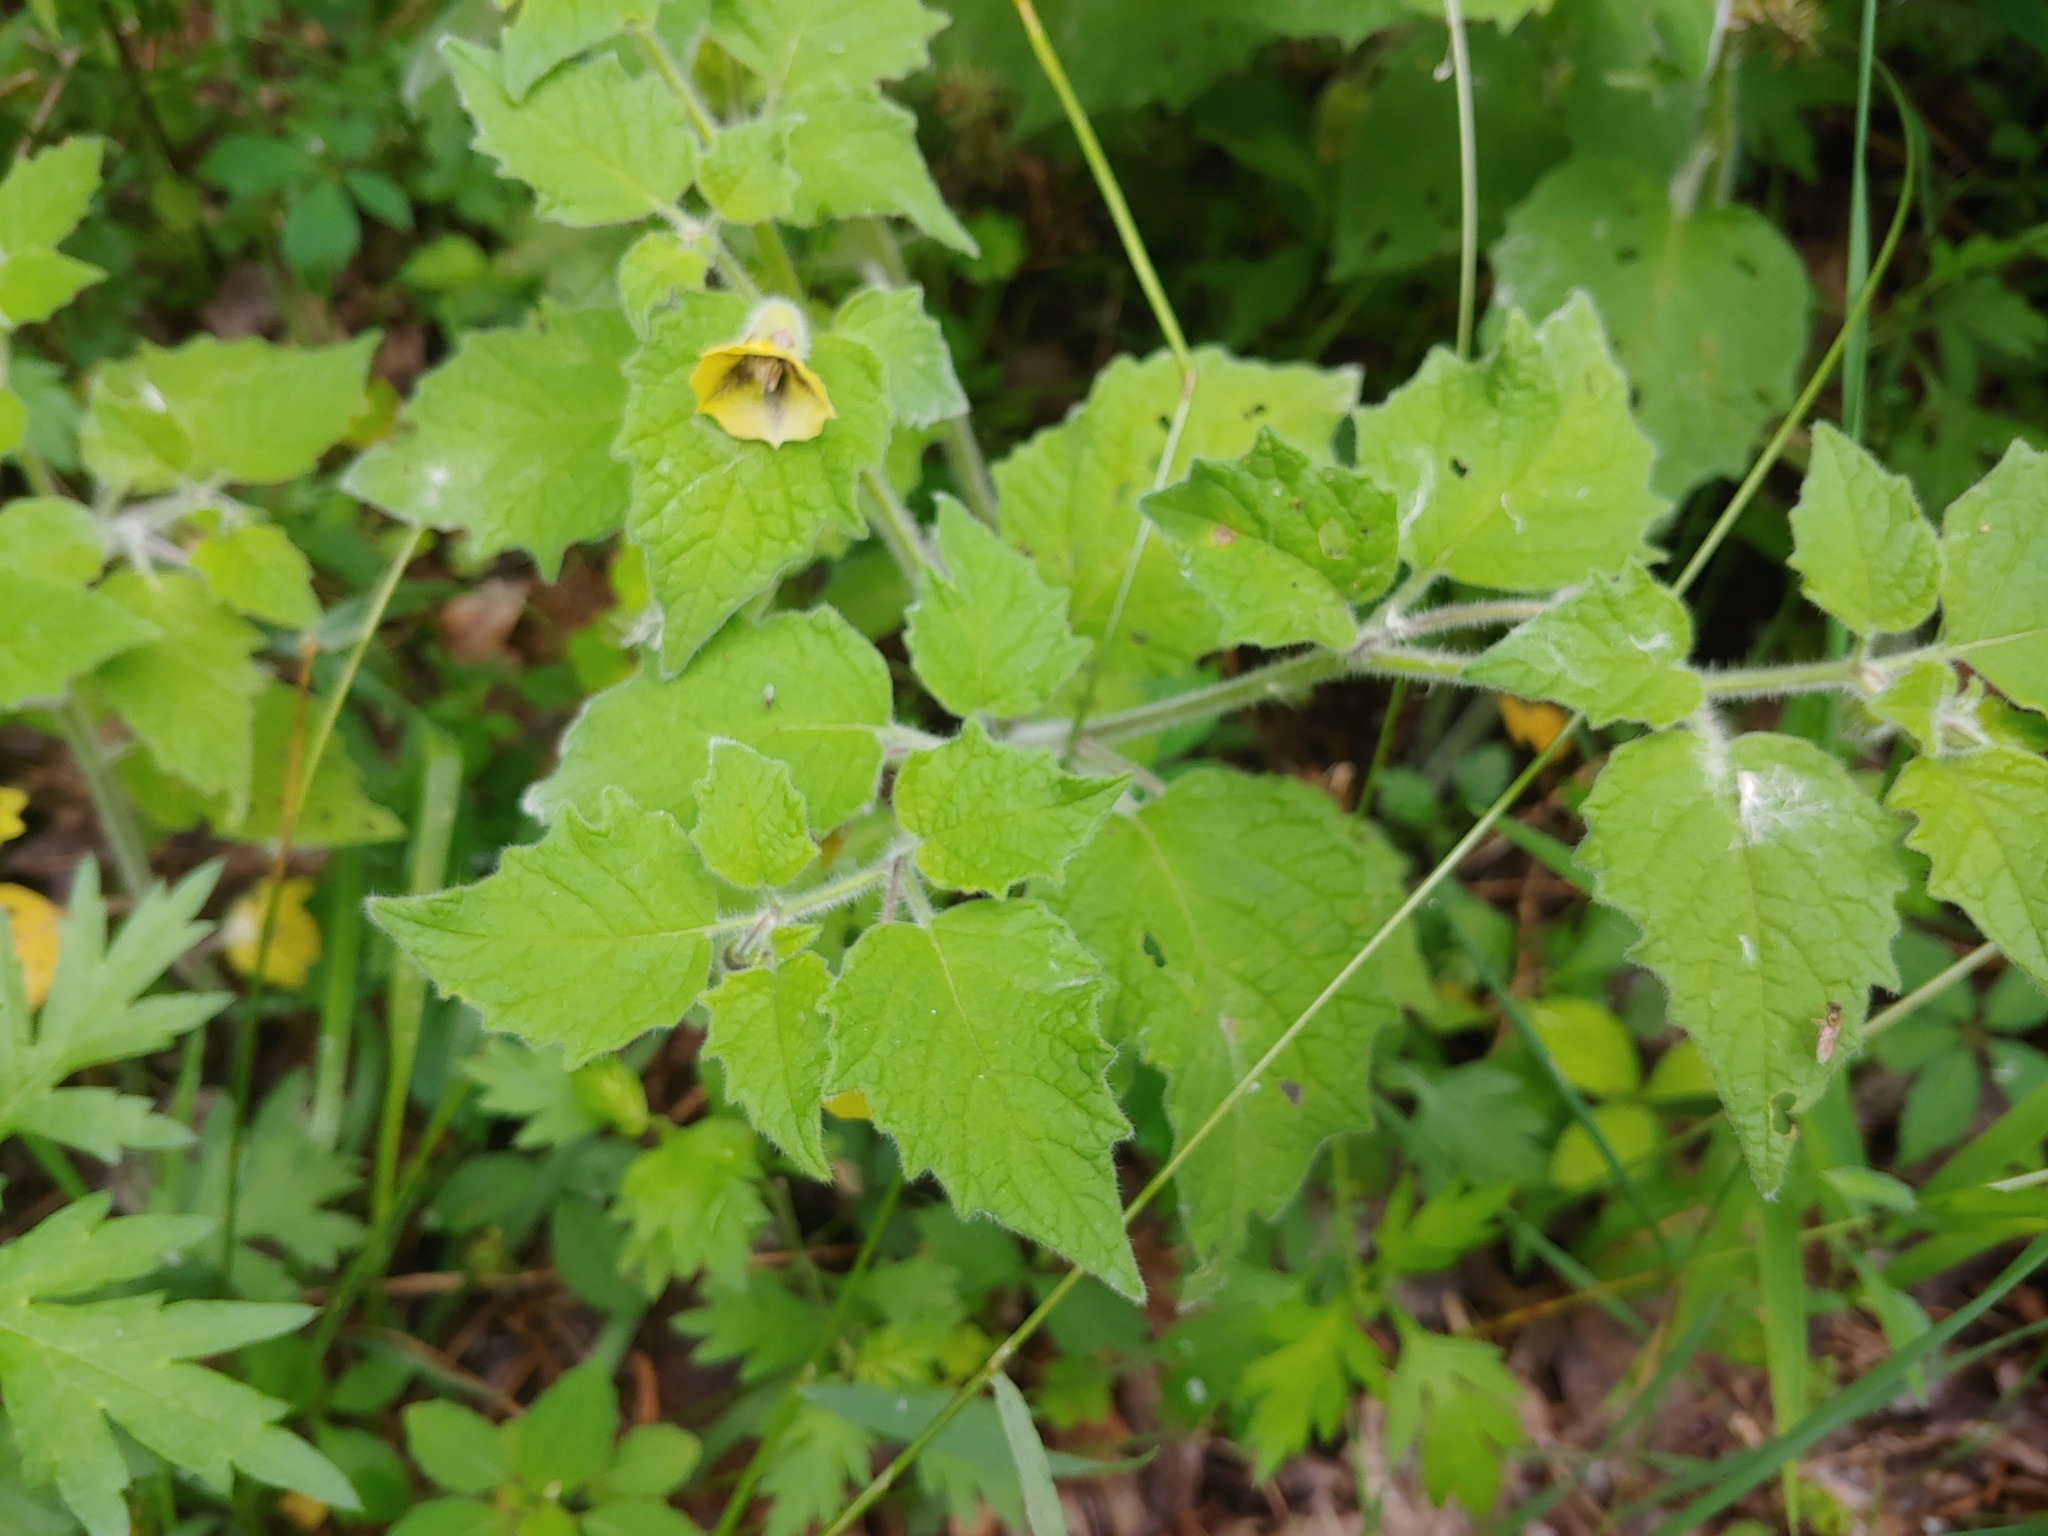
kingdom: Plantae
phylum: Tracheophyta
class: Magnoliopsida
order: Solanales
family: Solanaceae
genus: Physalis
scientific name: Physalis heterophylla
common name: Clammy ground-cherry
